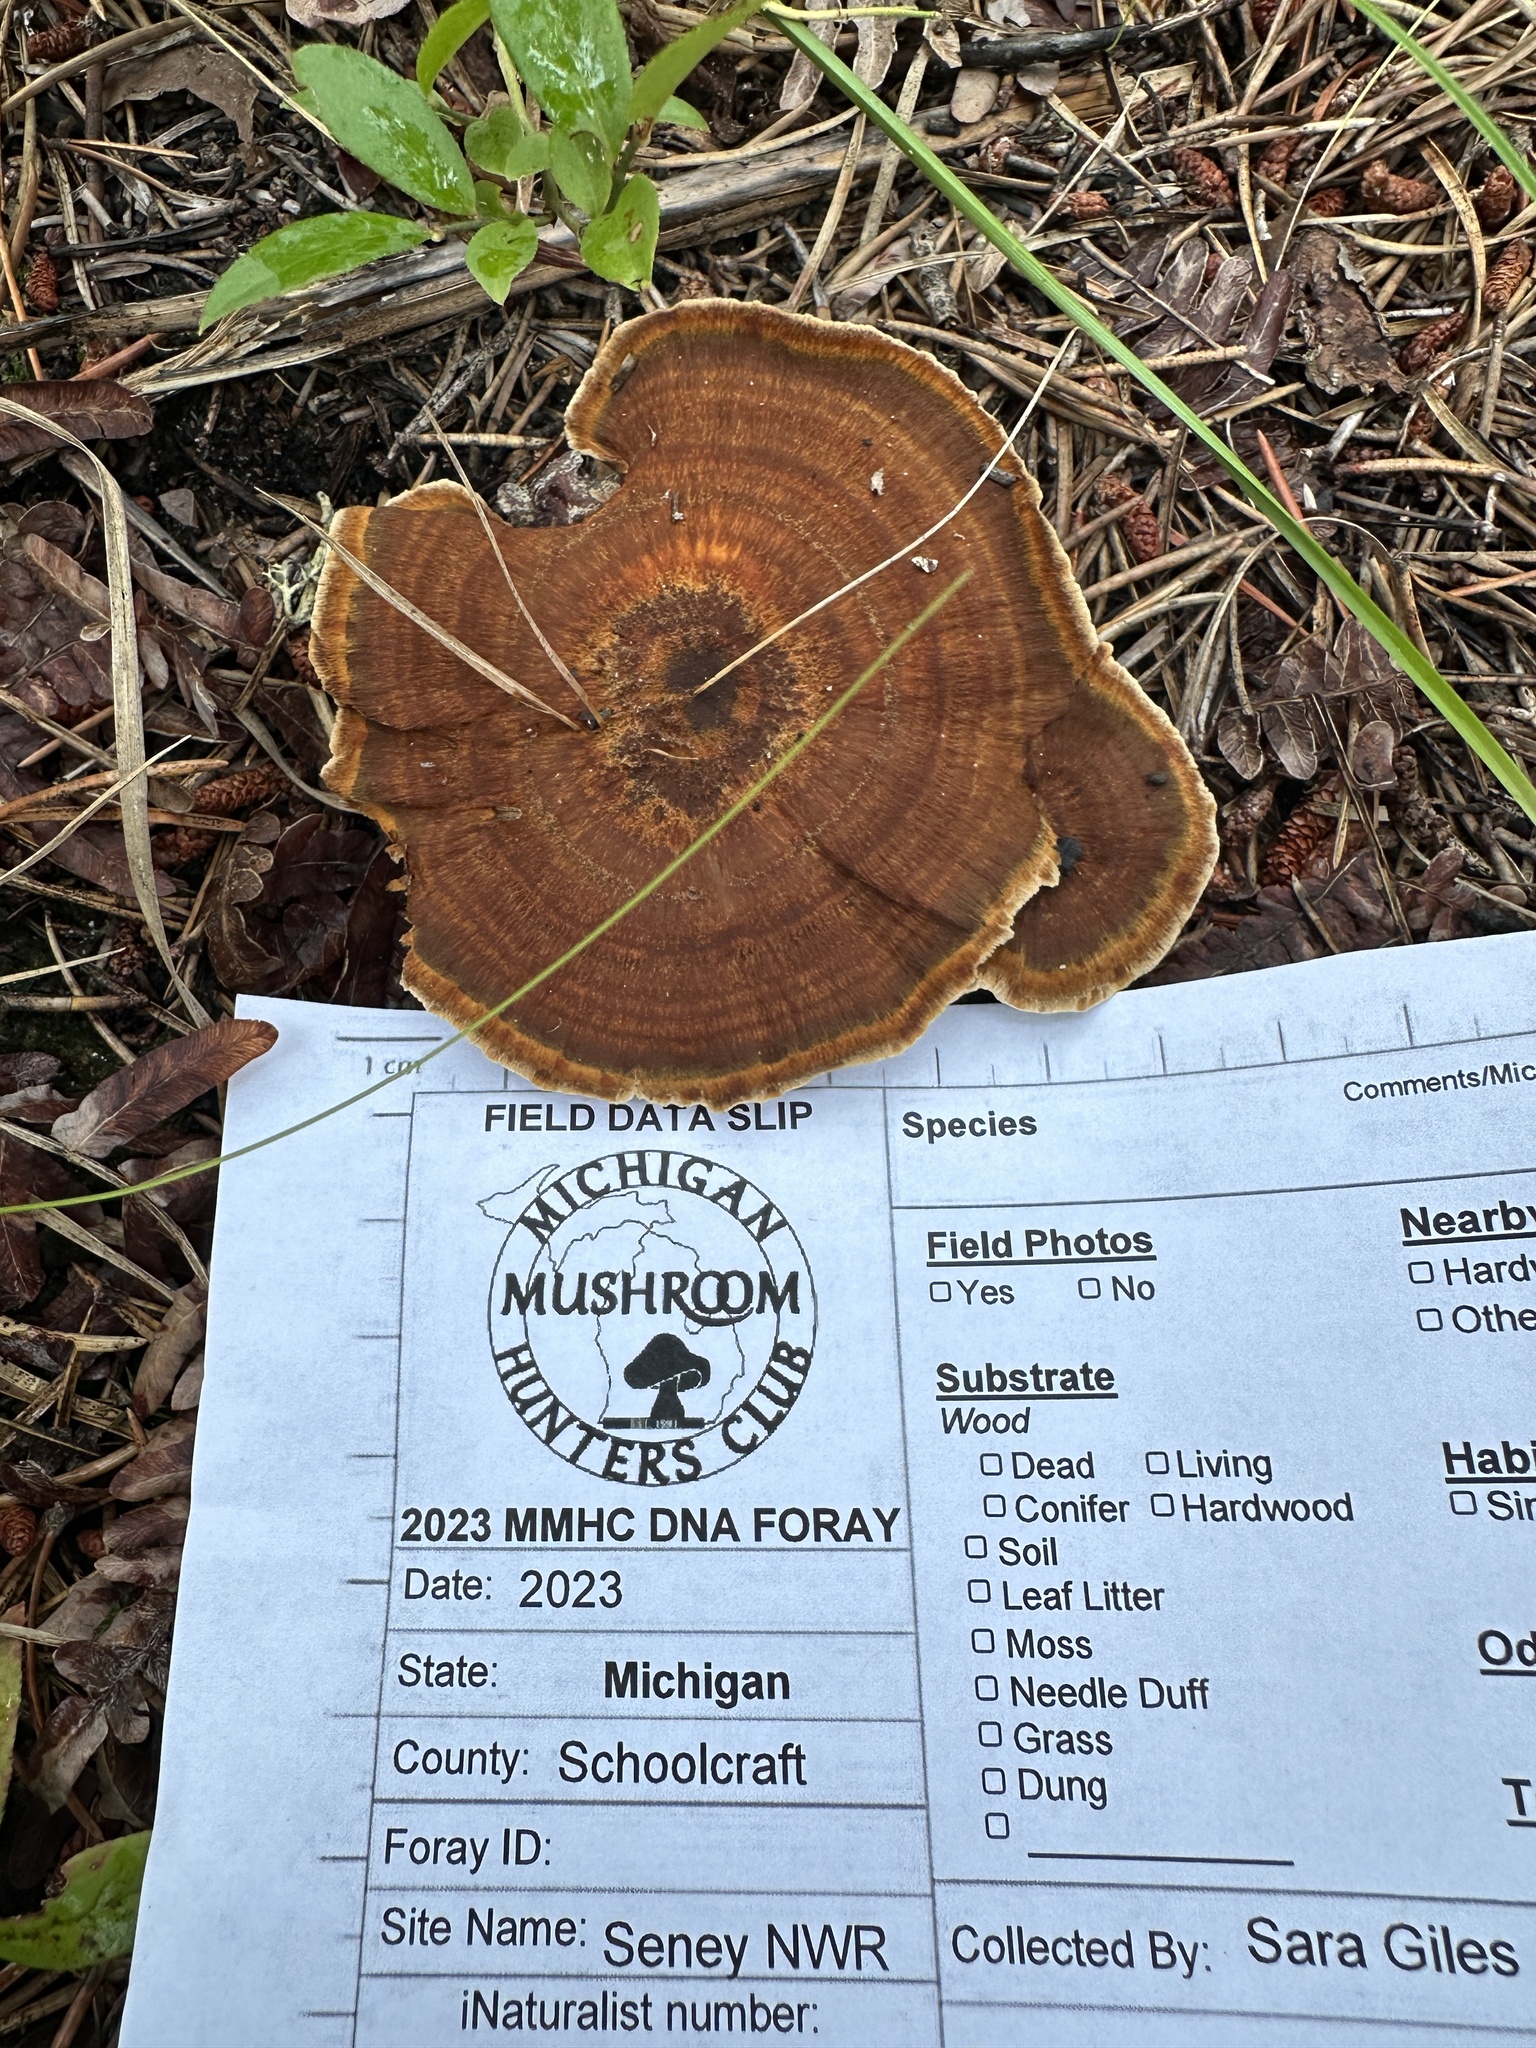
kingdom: Fungi
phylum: Basidiomycota
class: Agaricomycetes
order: Hymenochaetales
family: Hymenochaetaceae
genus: Coltricia
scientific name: Coltricia perennis
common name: Tiger's eye
